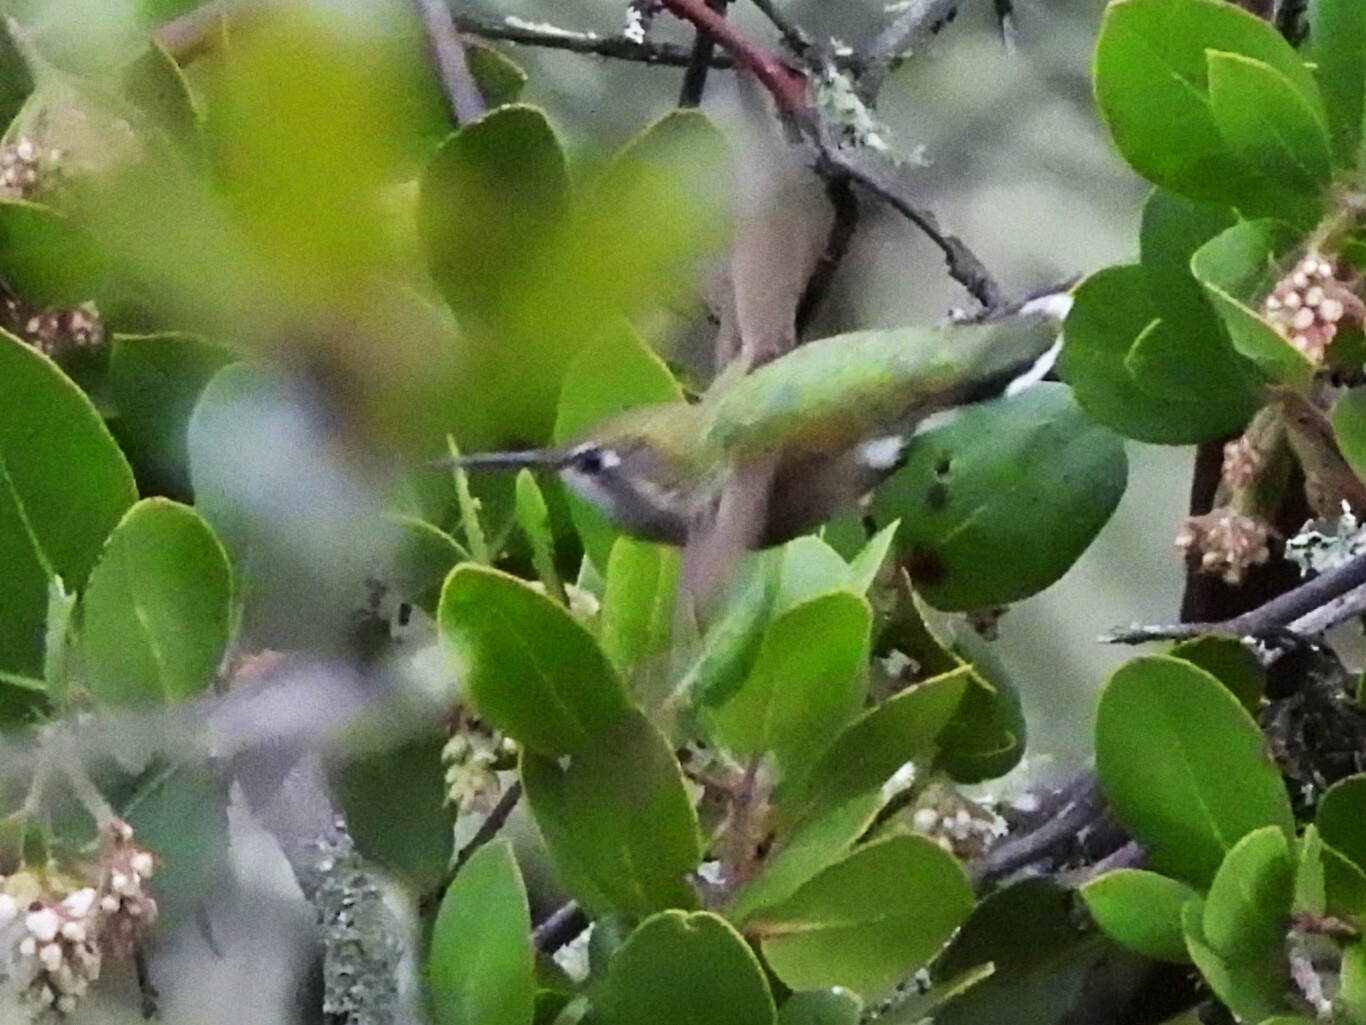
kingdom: Animalia
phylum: Chordata
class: Aves
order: Apodiformes
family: Trochilidae
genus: Calypte
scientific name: Calypte anna
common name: Anna's hummingbird
